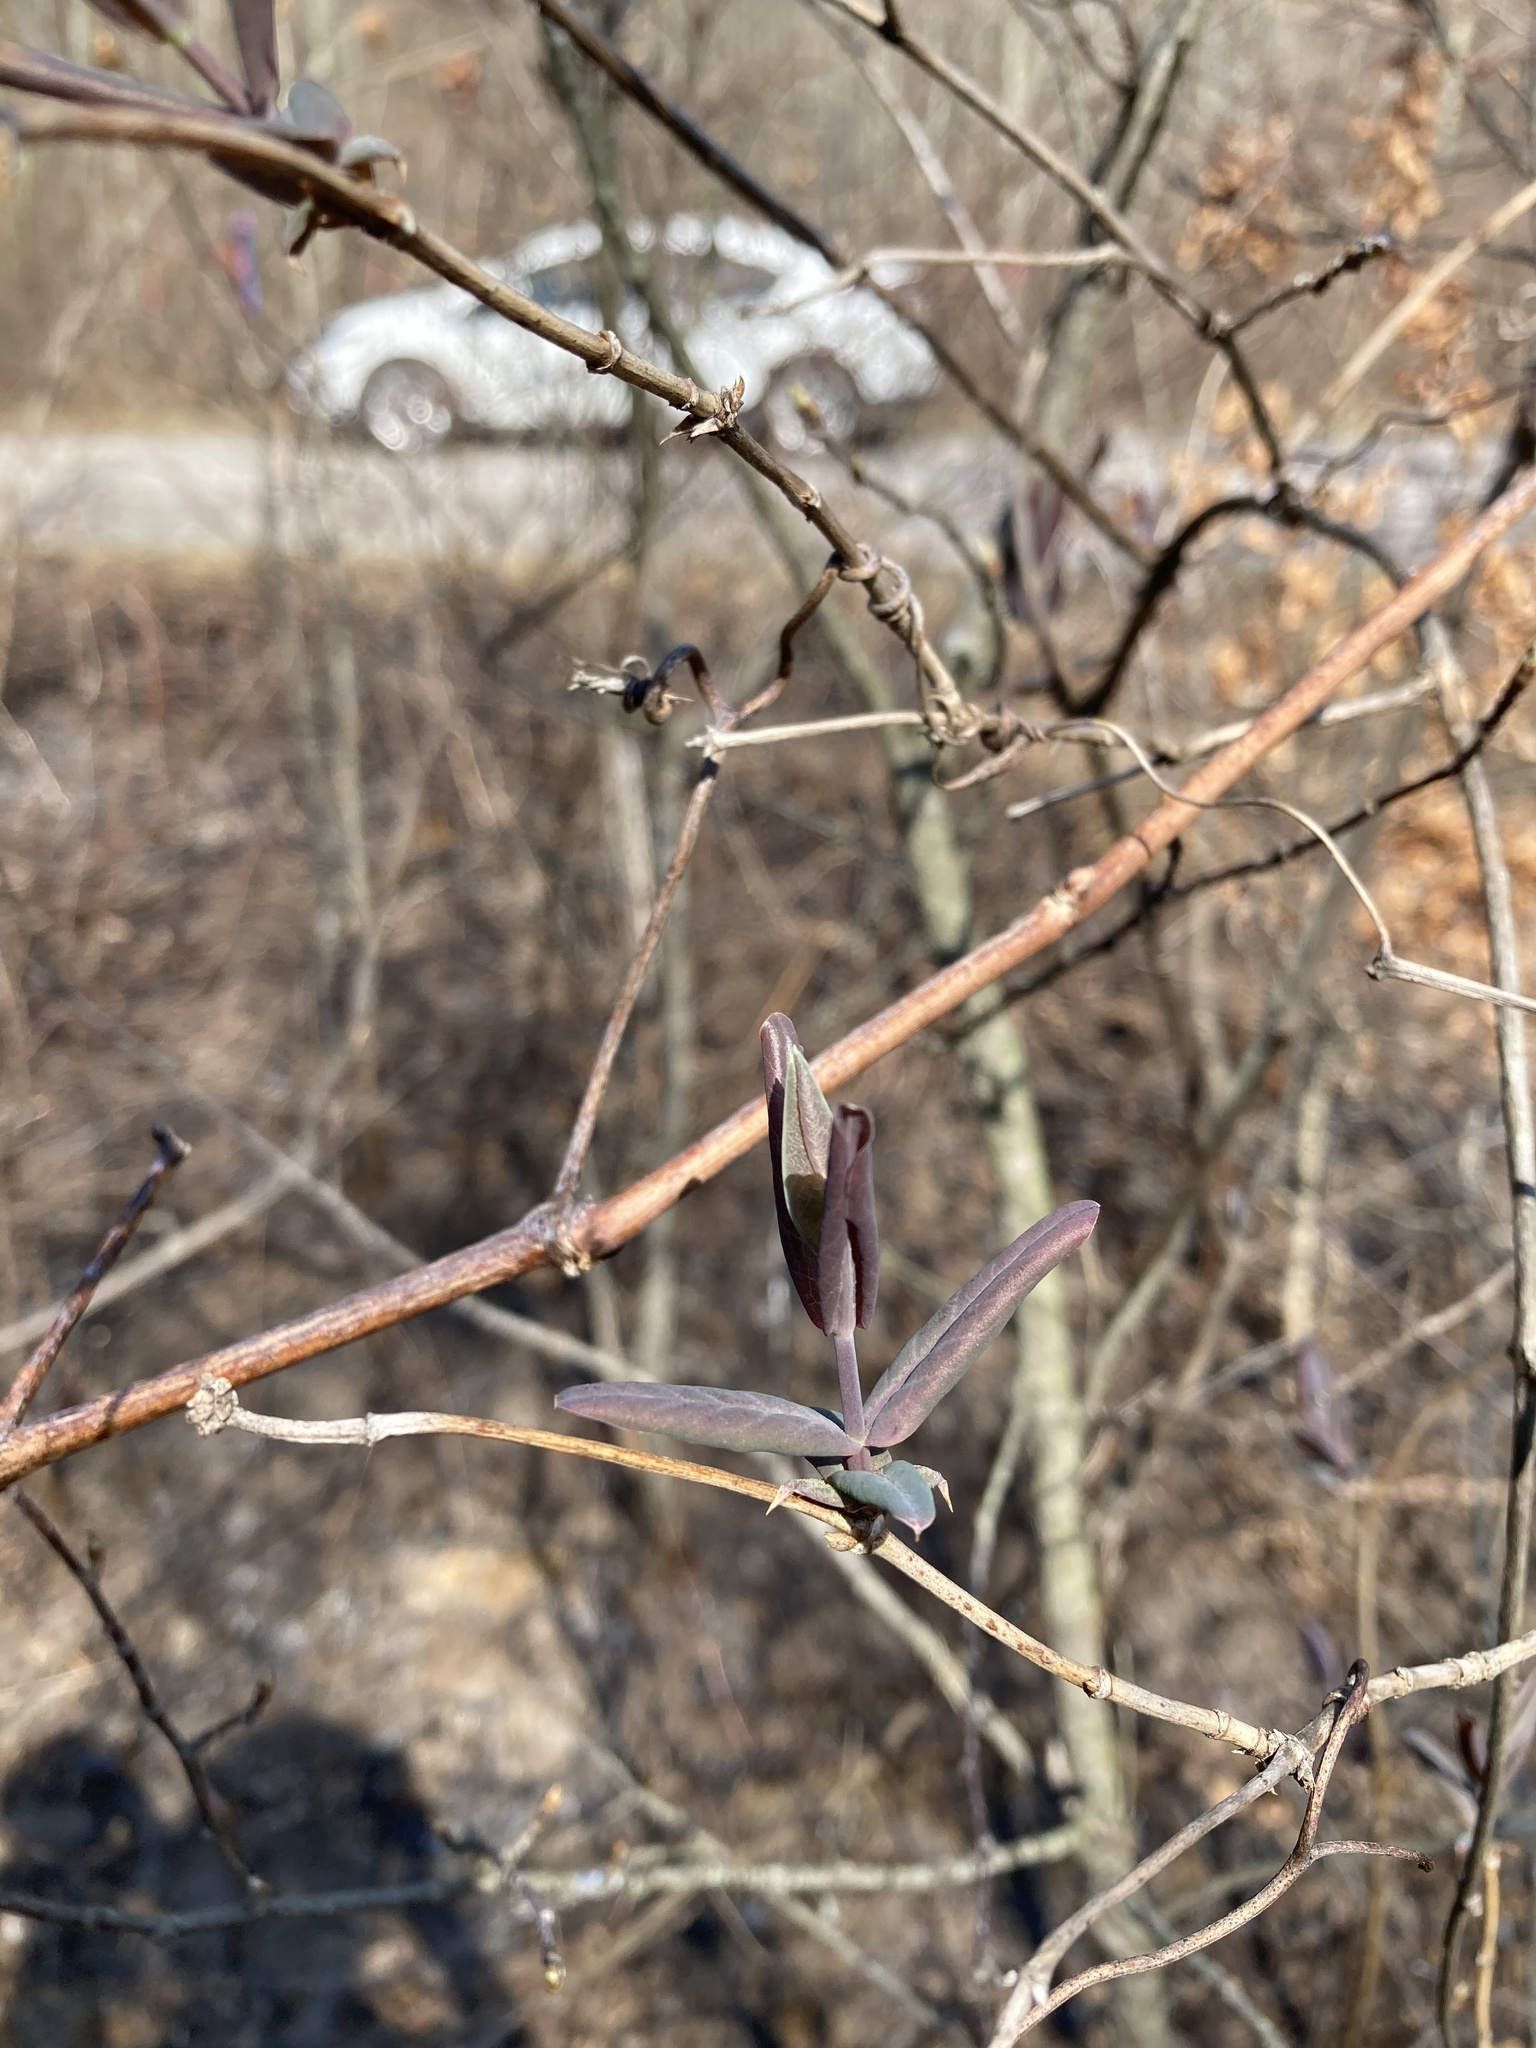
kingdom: Plantae
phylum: Tracheophyta
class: Magnoliopsida
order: Dipsacales
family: Caprifoliaceae
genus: Lonicera
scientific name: Lonicera dioica
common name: Limber honeysuckle
